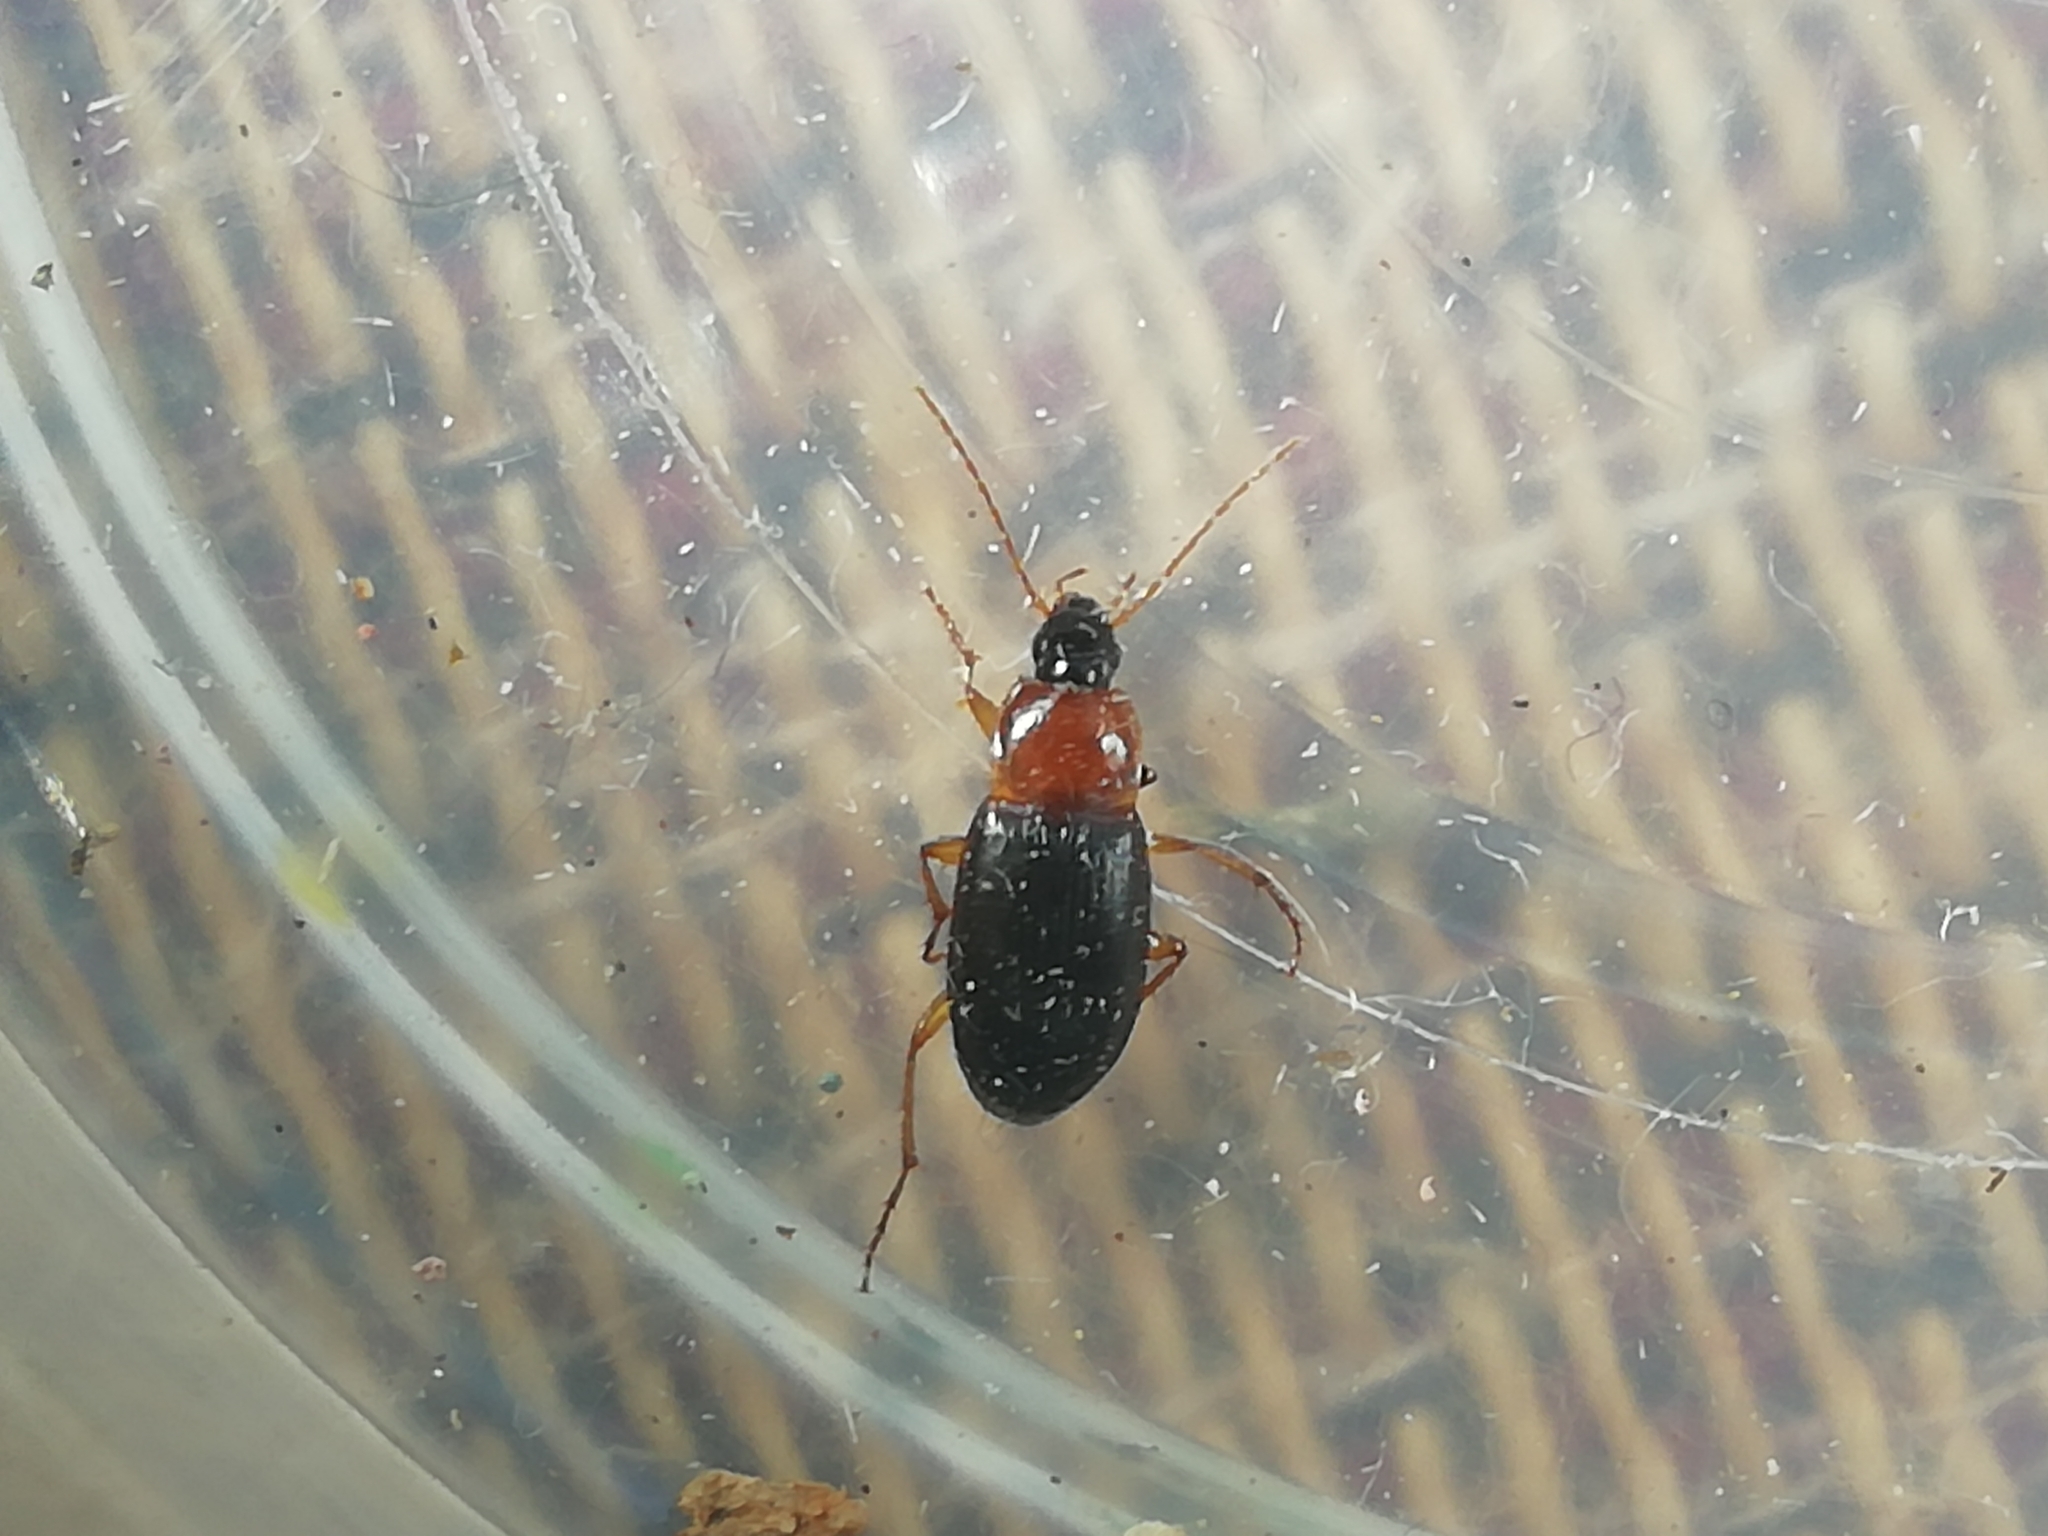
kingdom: Animalia
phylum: Arthropoda
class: Insecta
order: Coleoptera
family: Carabidae
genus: Calathus
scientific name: Calathus melanocephalus
